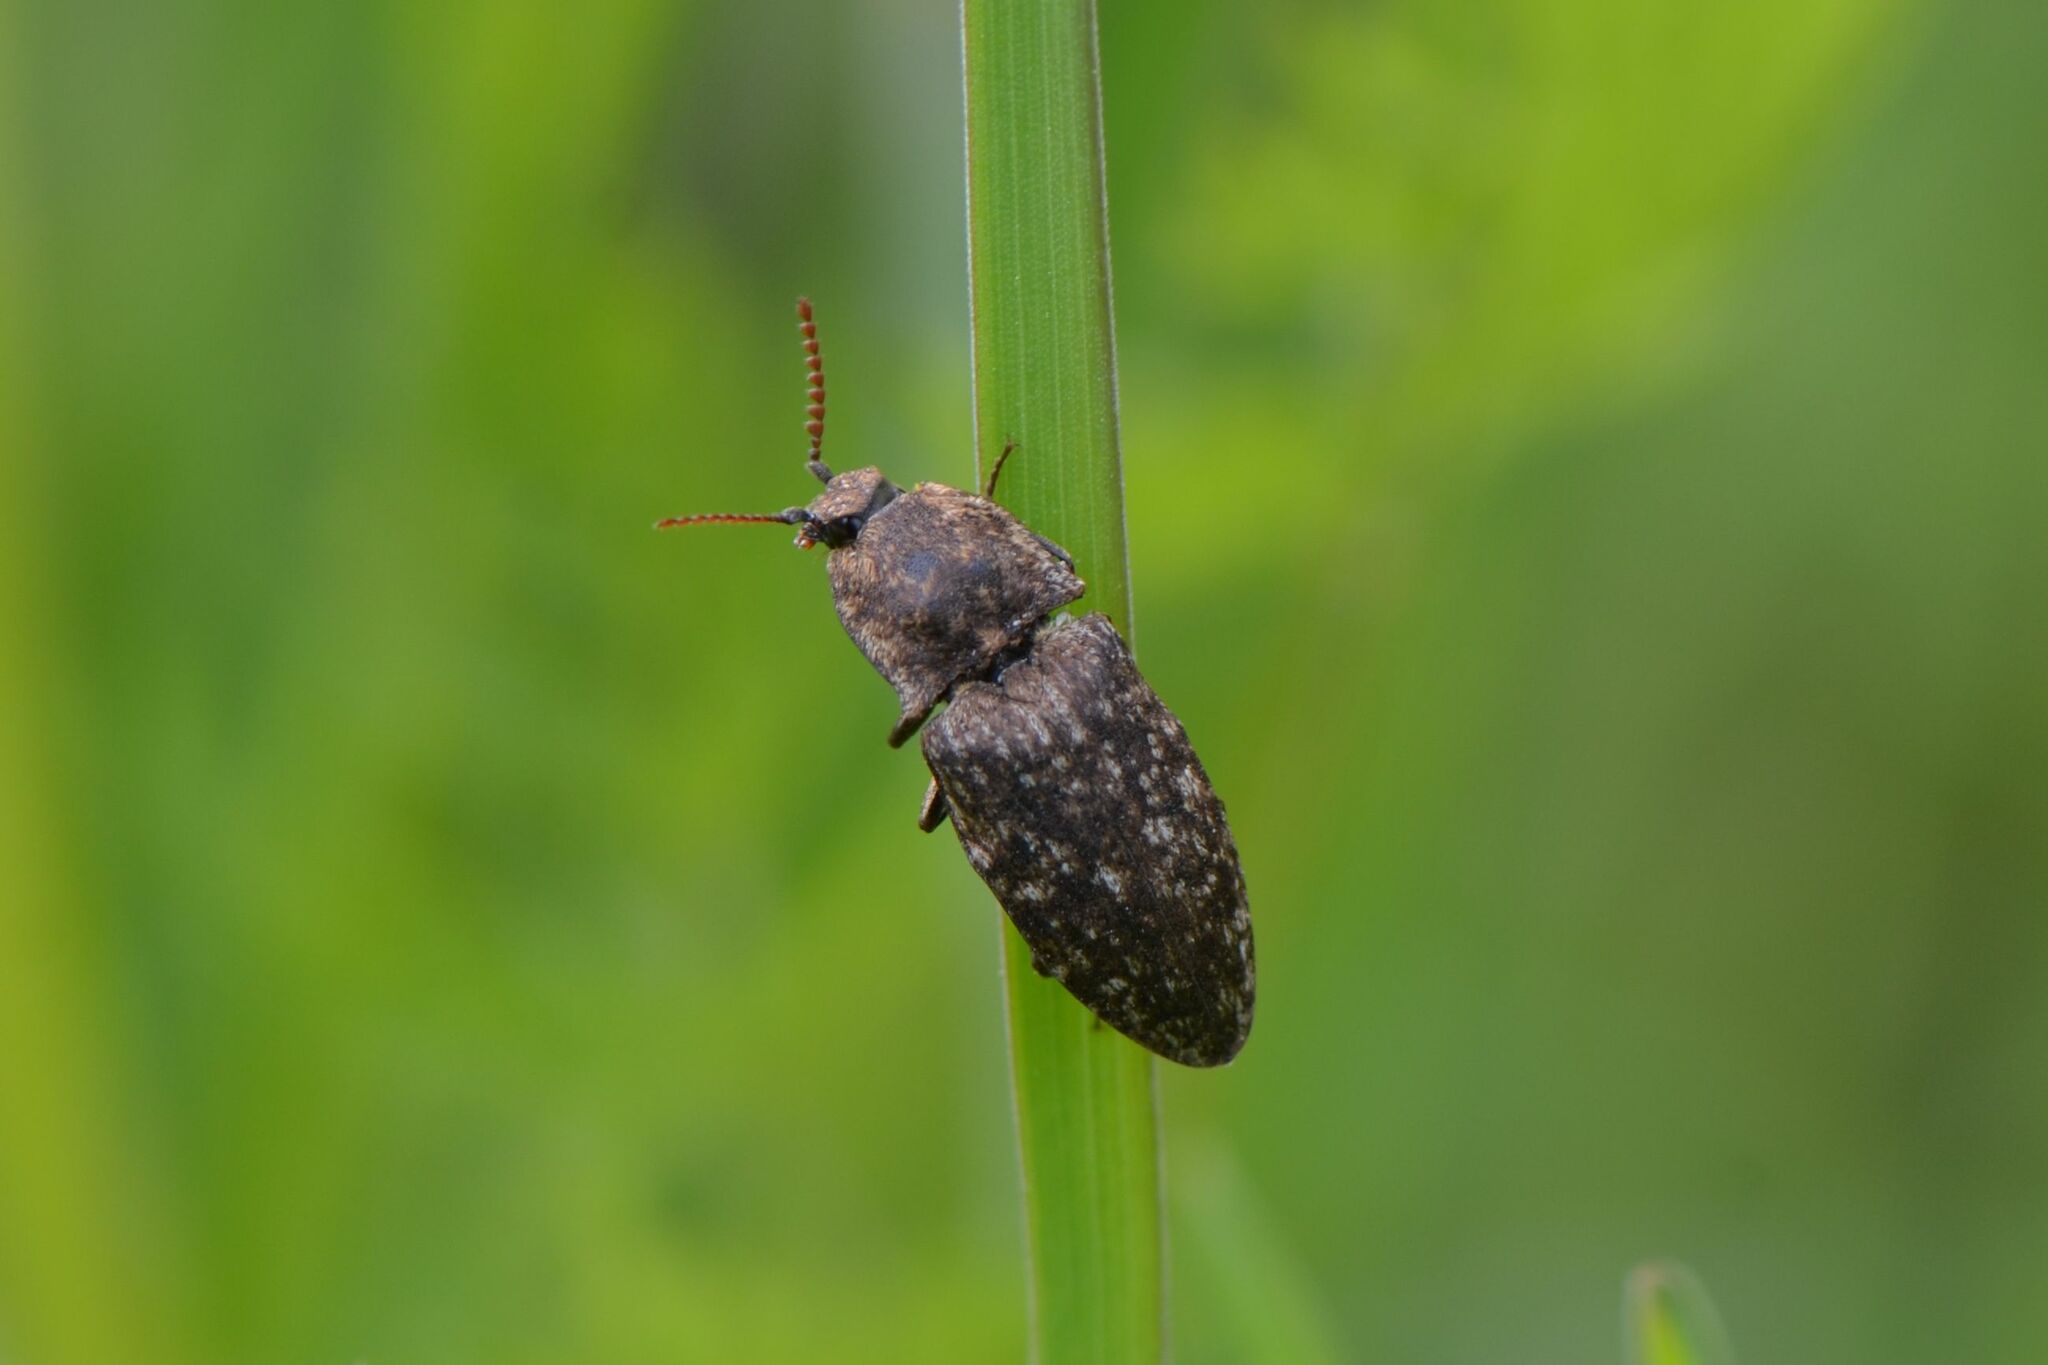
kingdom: Animalia
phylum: Arthropoda
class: Insecta
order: Coleoptera
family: Elateridae
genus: Agrypnus
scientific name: Agrypnus murinus
